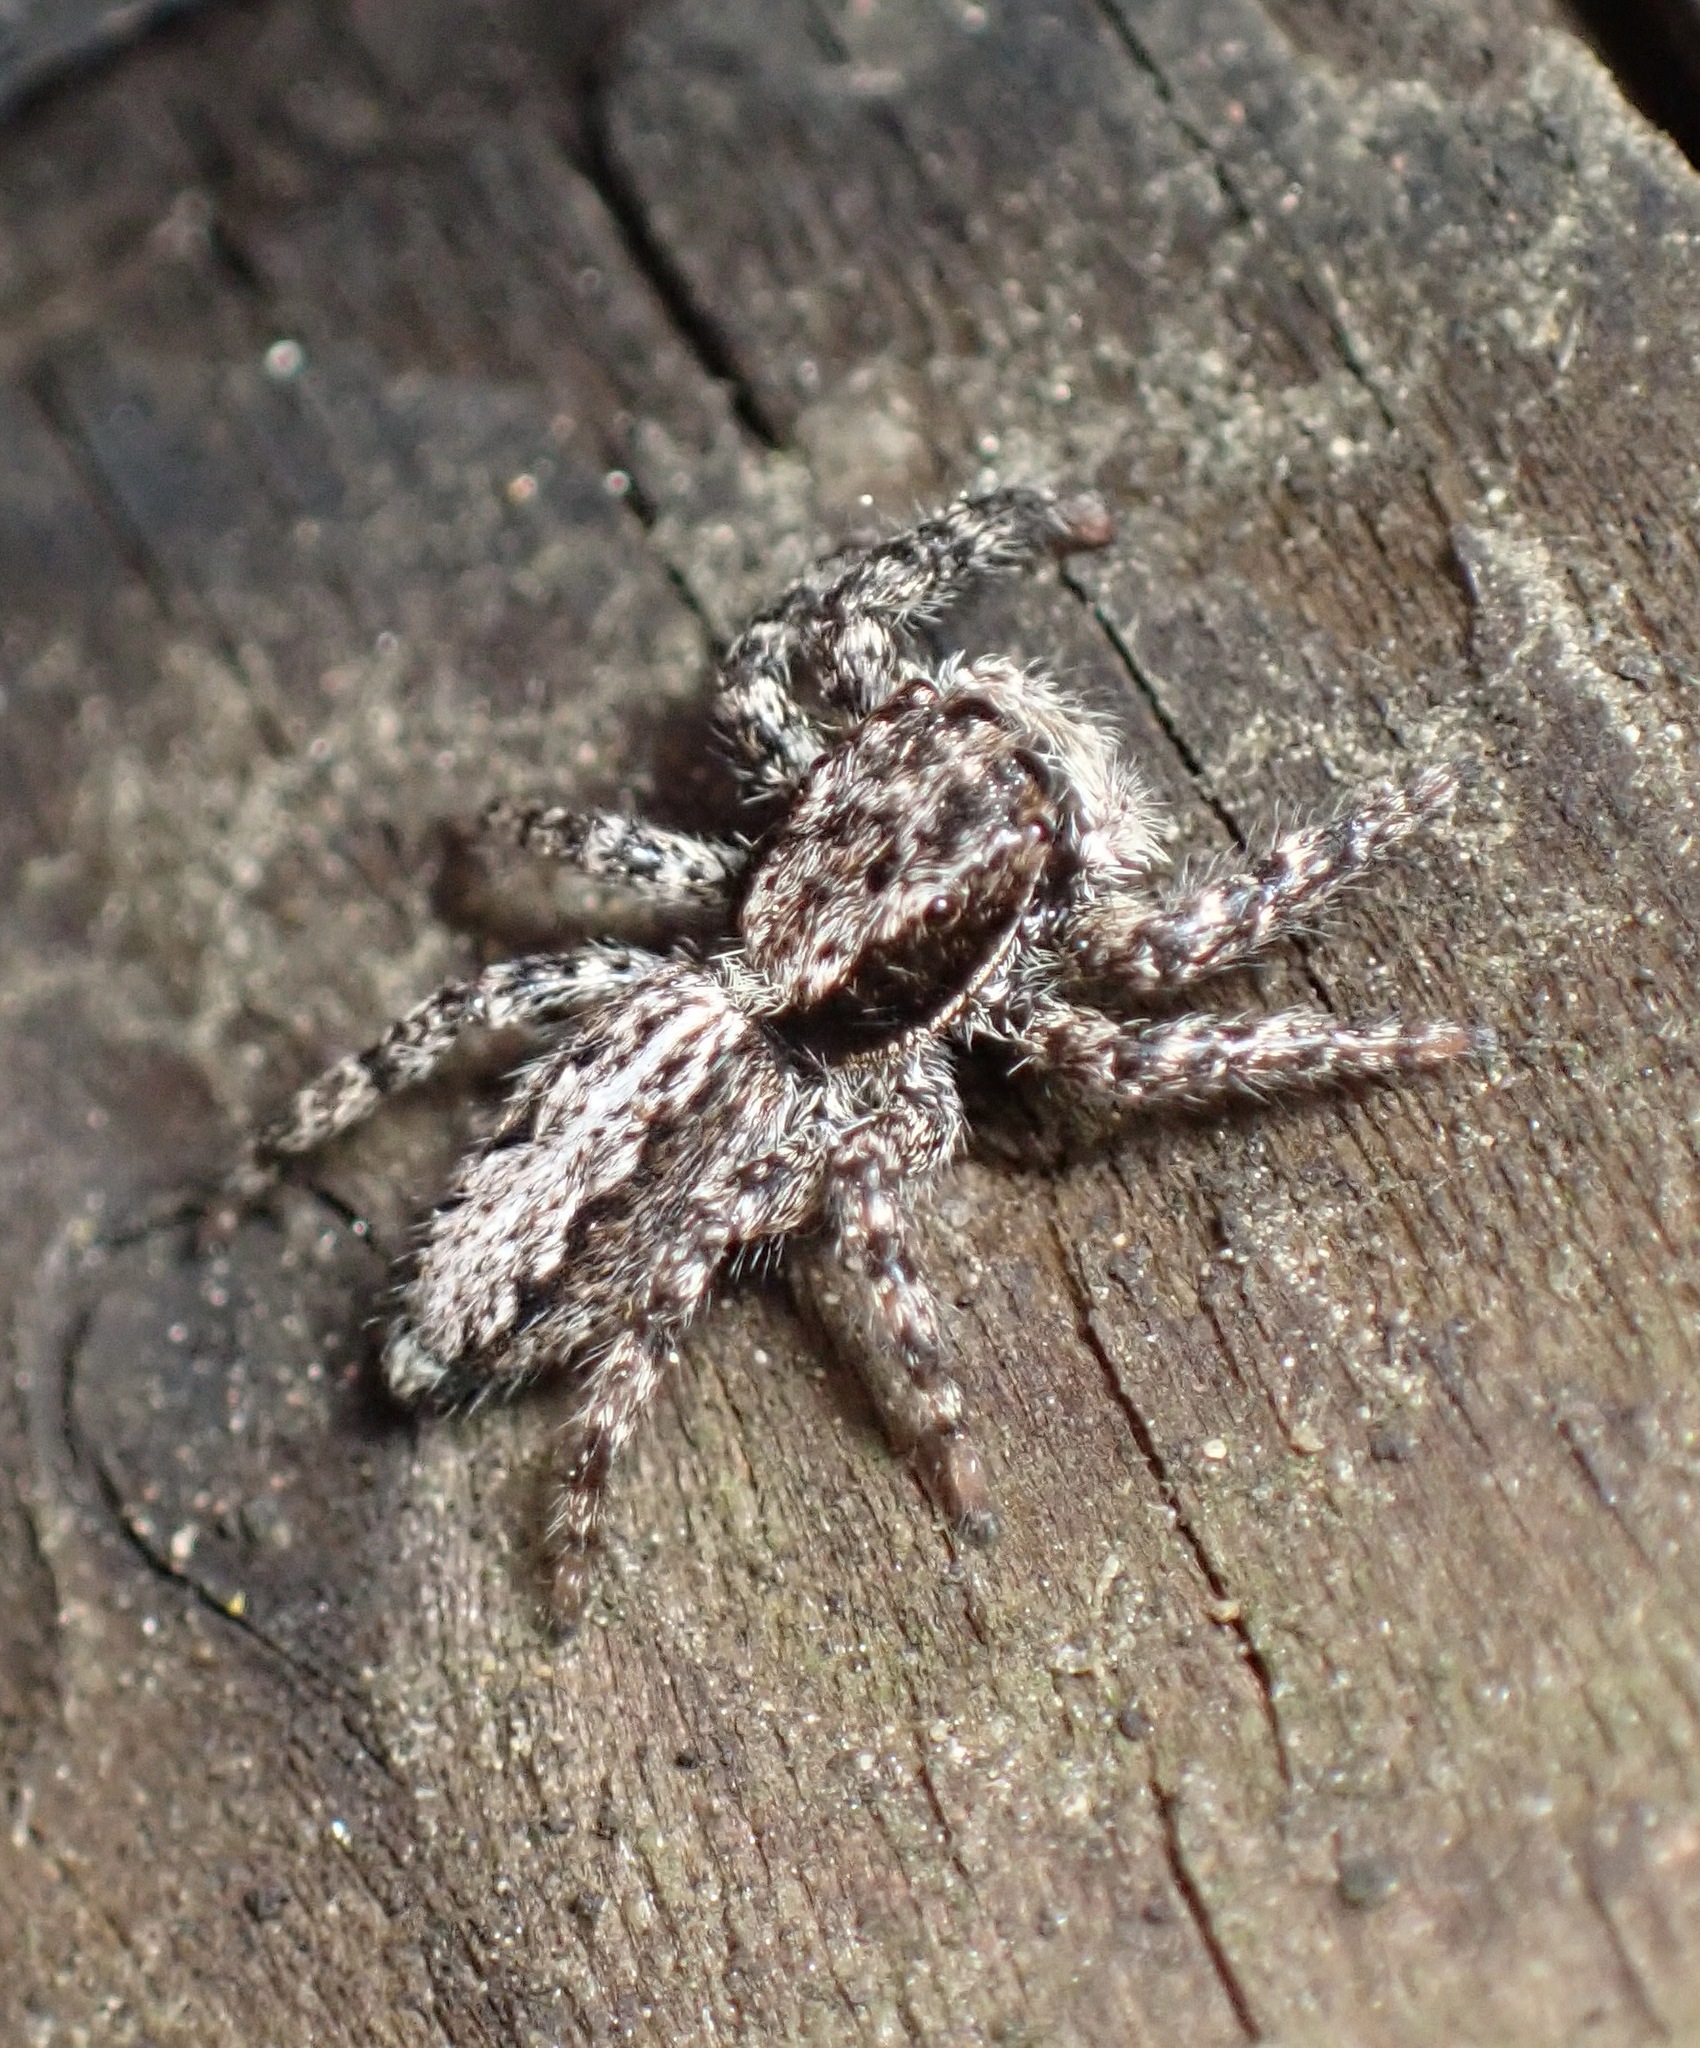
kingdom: Animalia
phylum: Arthropoda
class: Arachnida
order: Araneae
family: Salticidae
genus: Platycryptus
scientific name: Platycryptus californicus
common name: Jumping spiders
